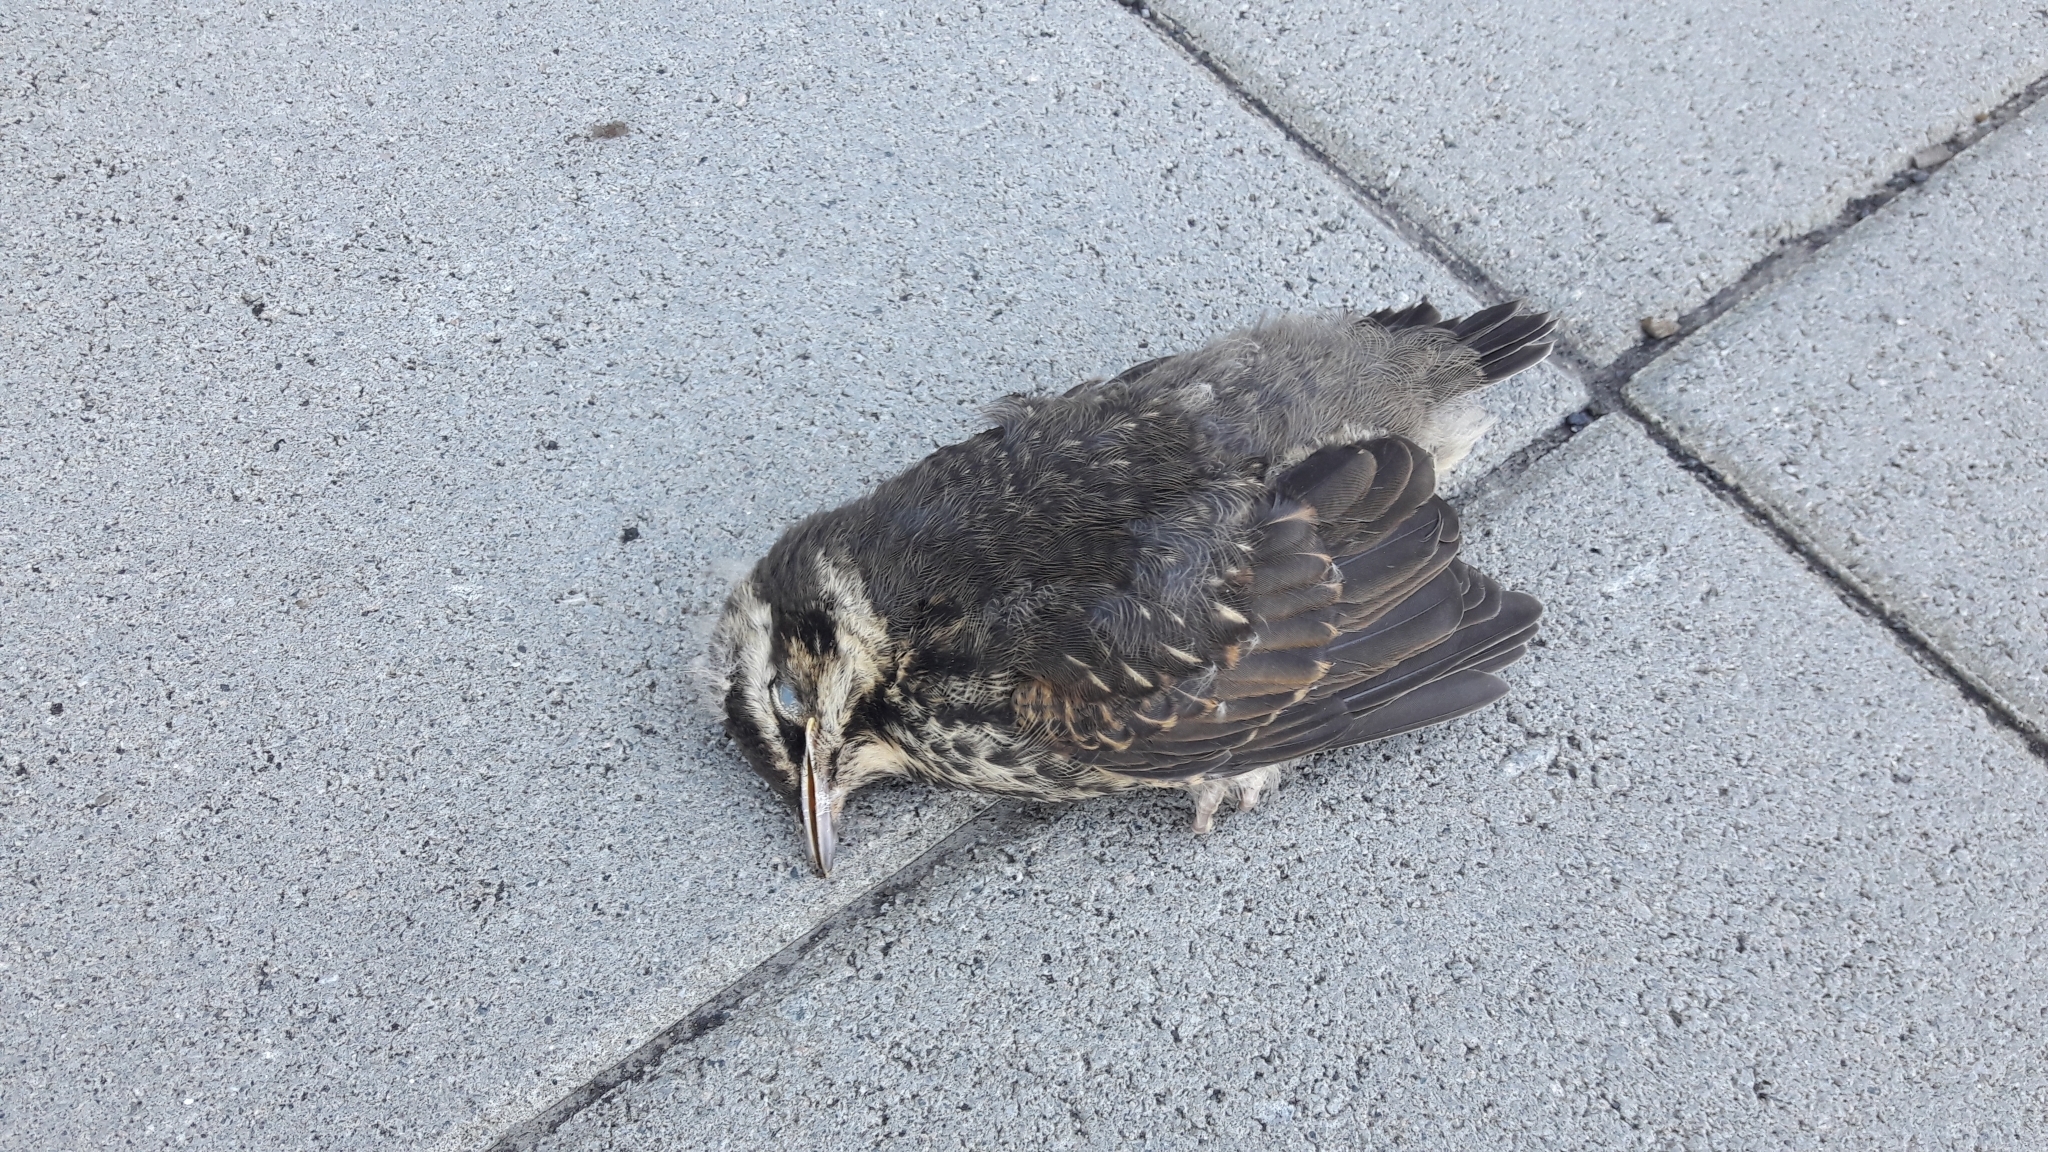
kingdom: Animalia
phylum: Chordata
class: Aves
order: Passeriformes
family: Turdidae
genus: Turdus
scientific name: Turdus iliacus
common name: Redwing
